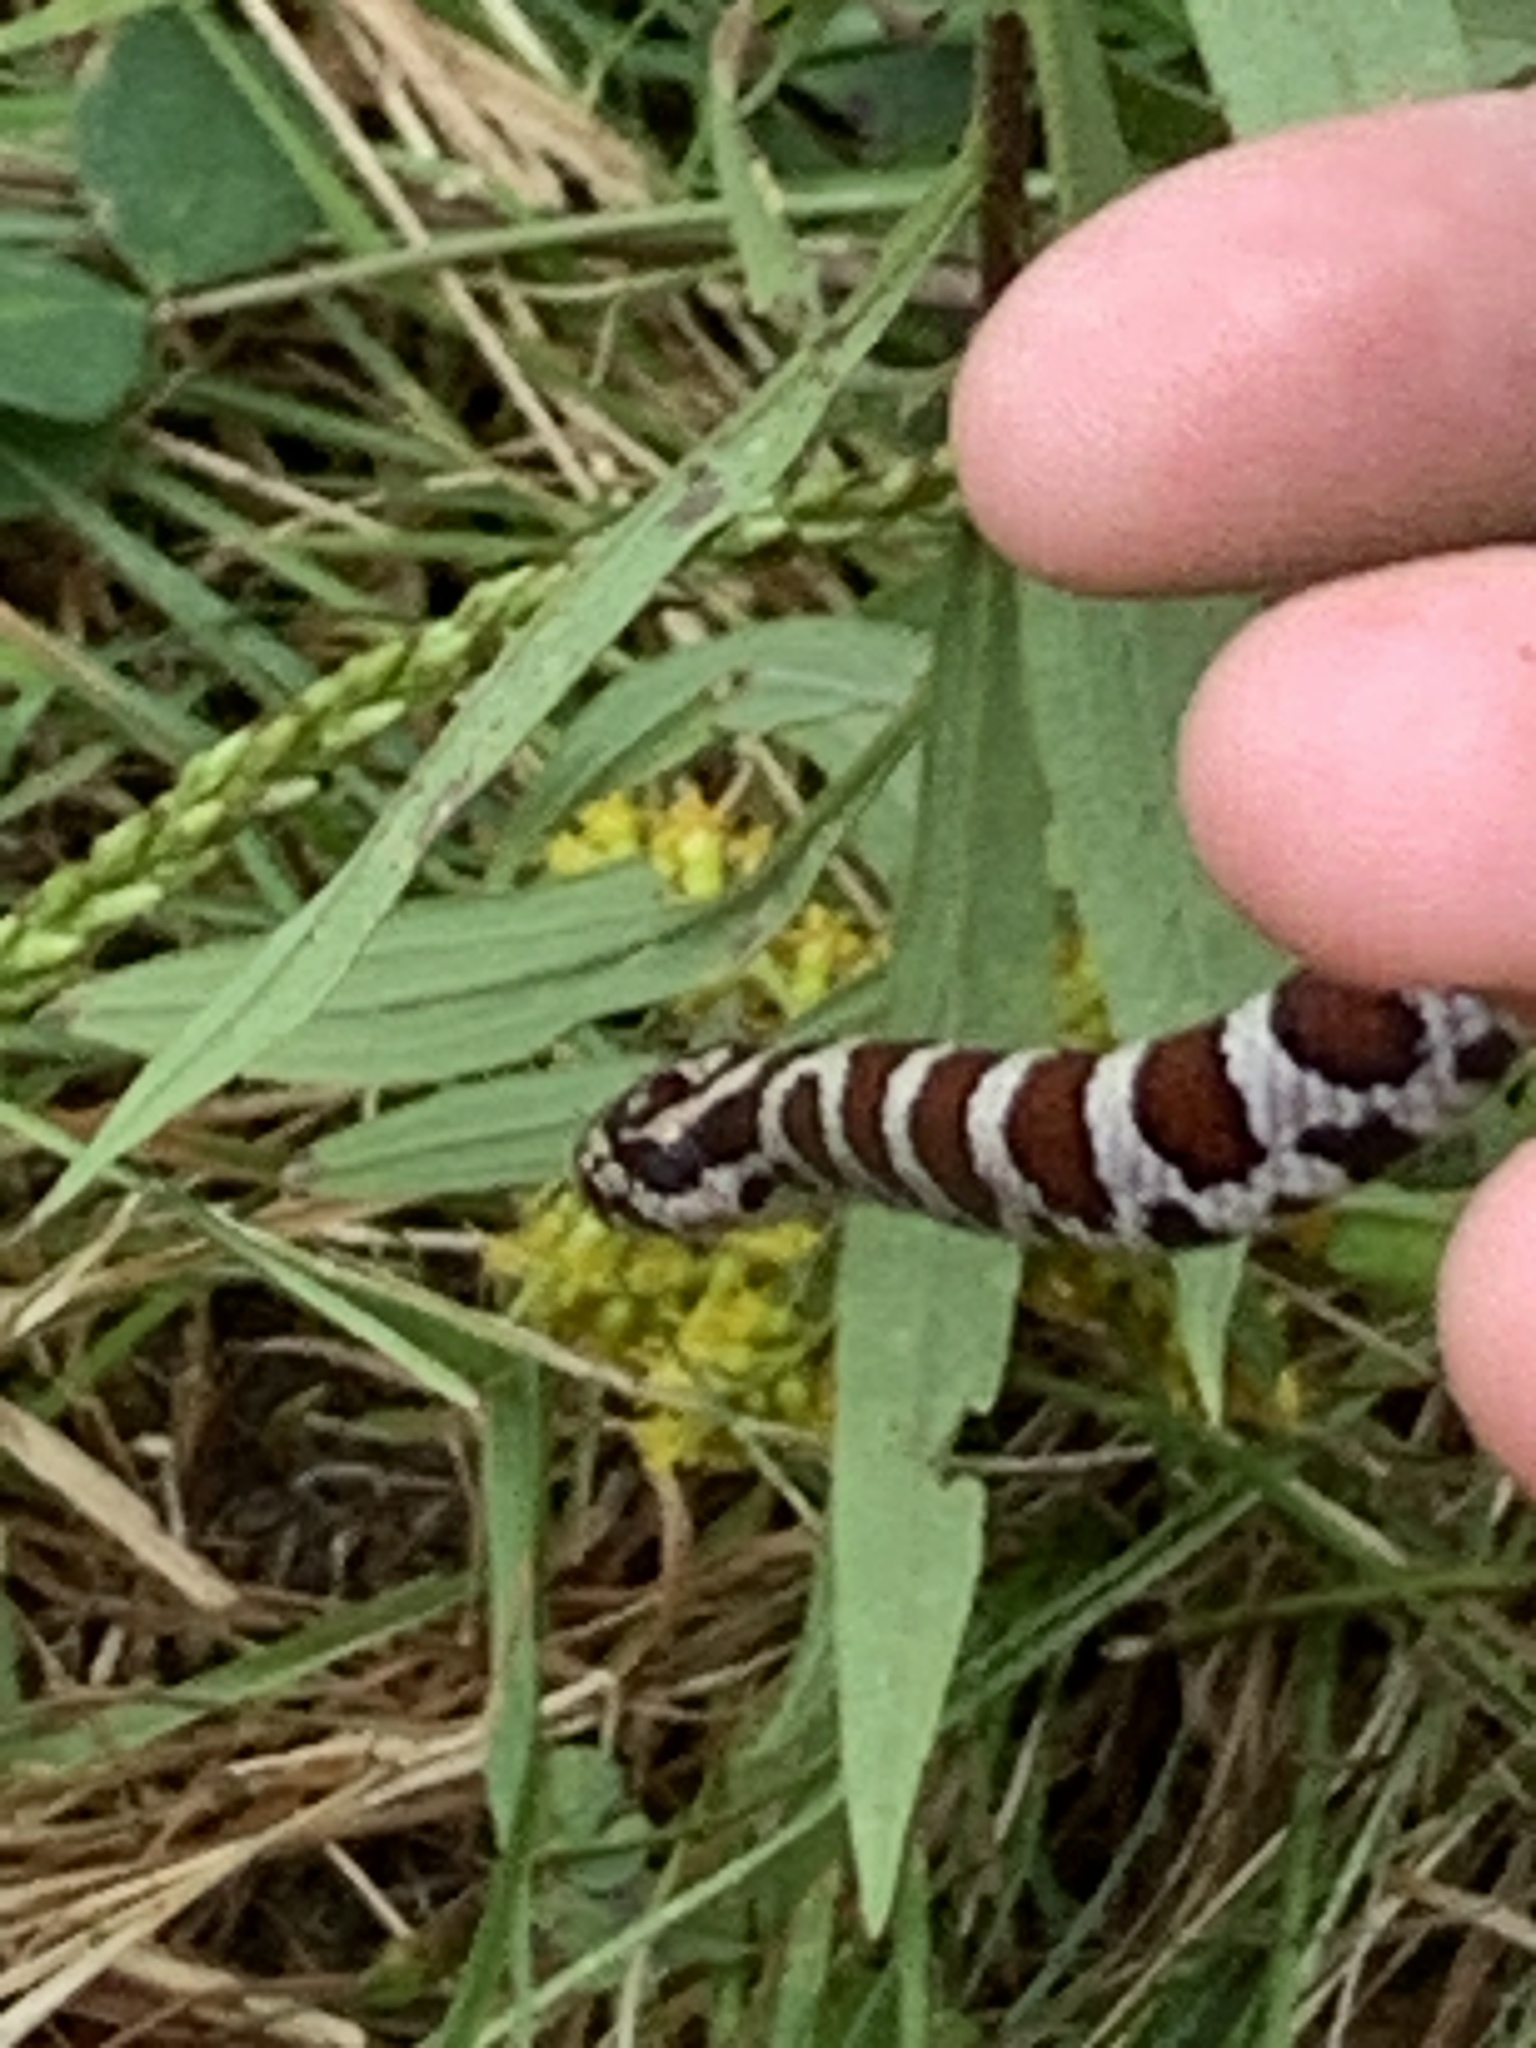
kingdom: Animalia
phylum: Chordata
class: Squamata
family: Colubridae
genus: Lampropeltis
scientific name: Lampropeltis triangulum
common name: Eastern milksnake
